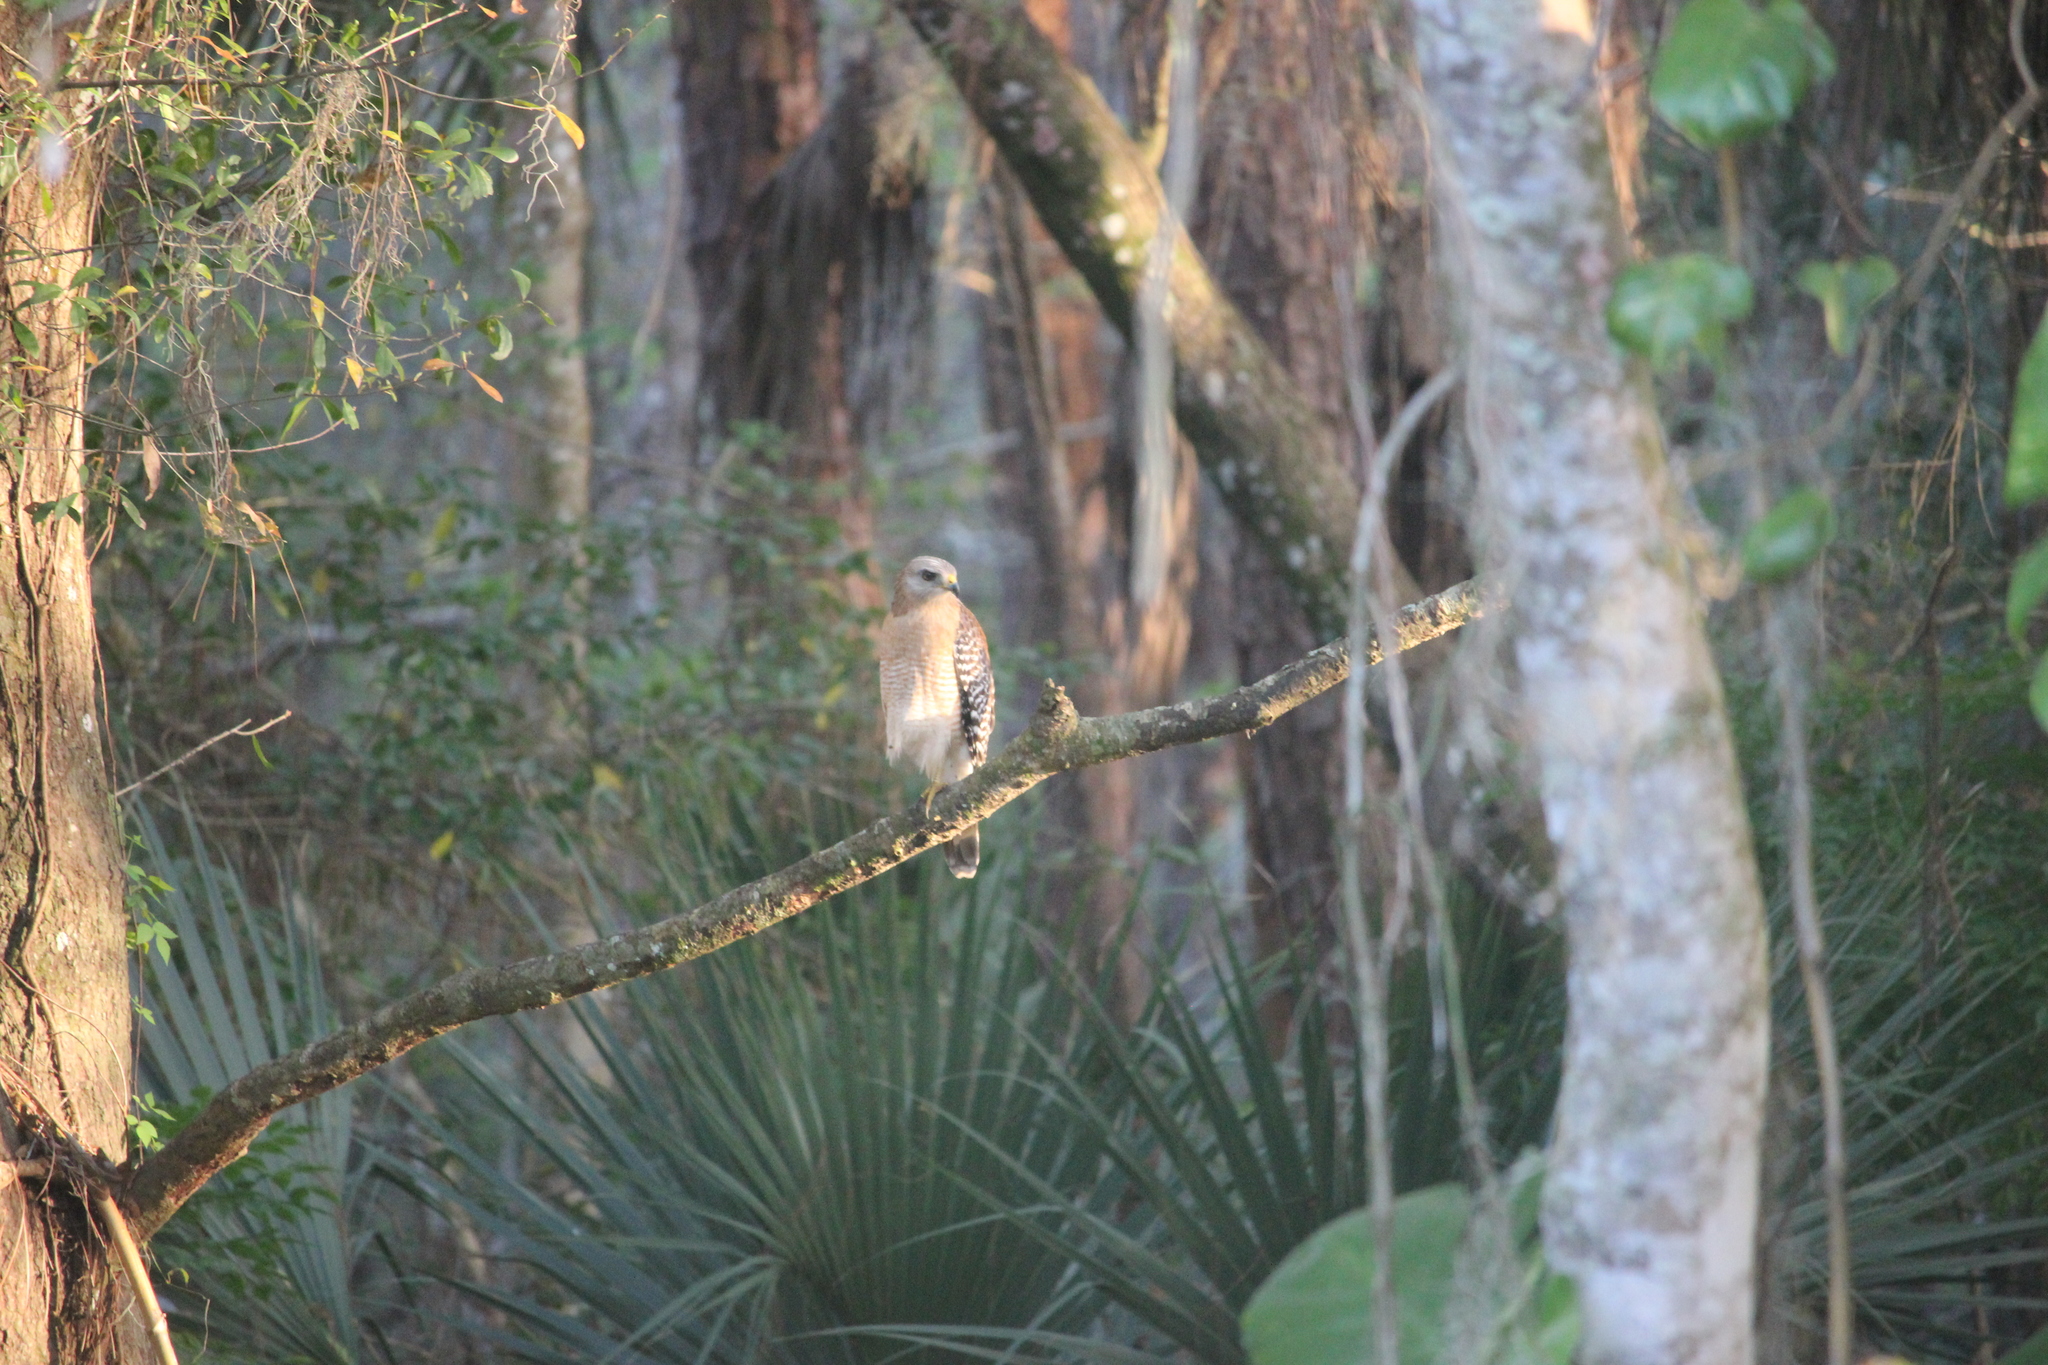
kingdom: Animalia
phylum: Chordata
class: Aves
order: Accipitriformes
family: Accipitridae
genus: Buteo
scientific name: Buteo lineatus
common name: Red-shouldered hawk
